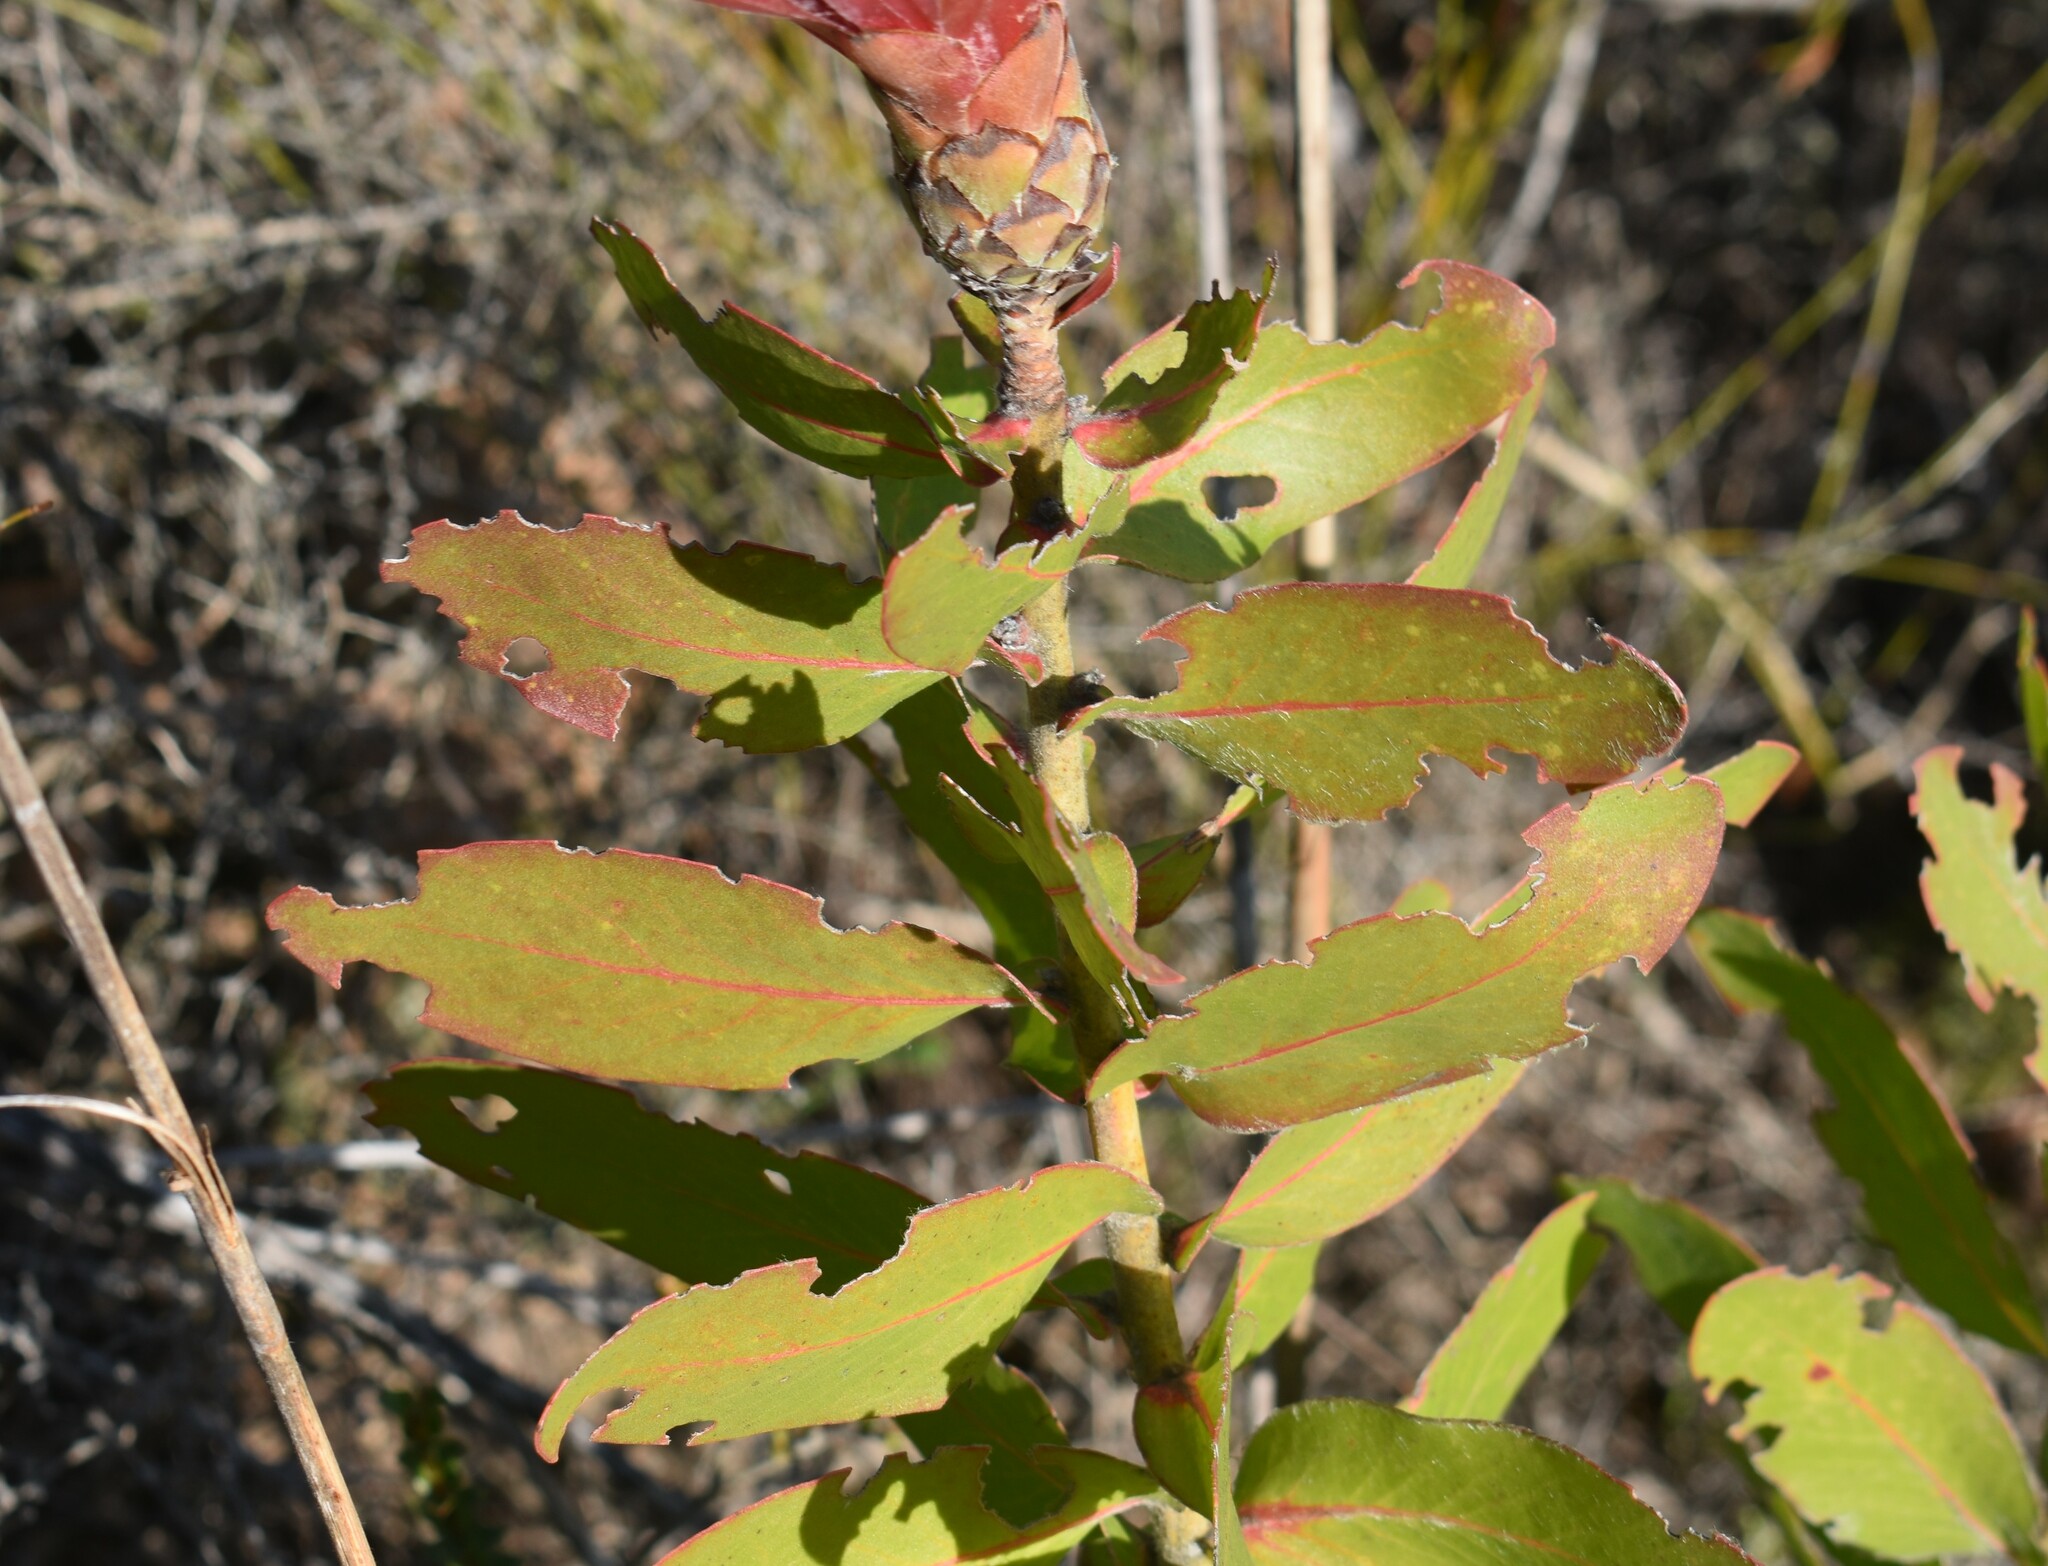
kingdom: Plantae
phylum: Tracheophyta
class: Magnoliopsida
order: Proteales
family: Proteaceae
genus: Protea
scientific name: Protea aurea
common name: Shuttlecock sugarbush
